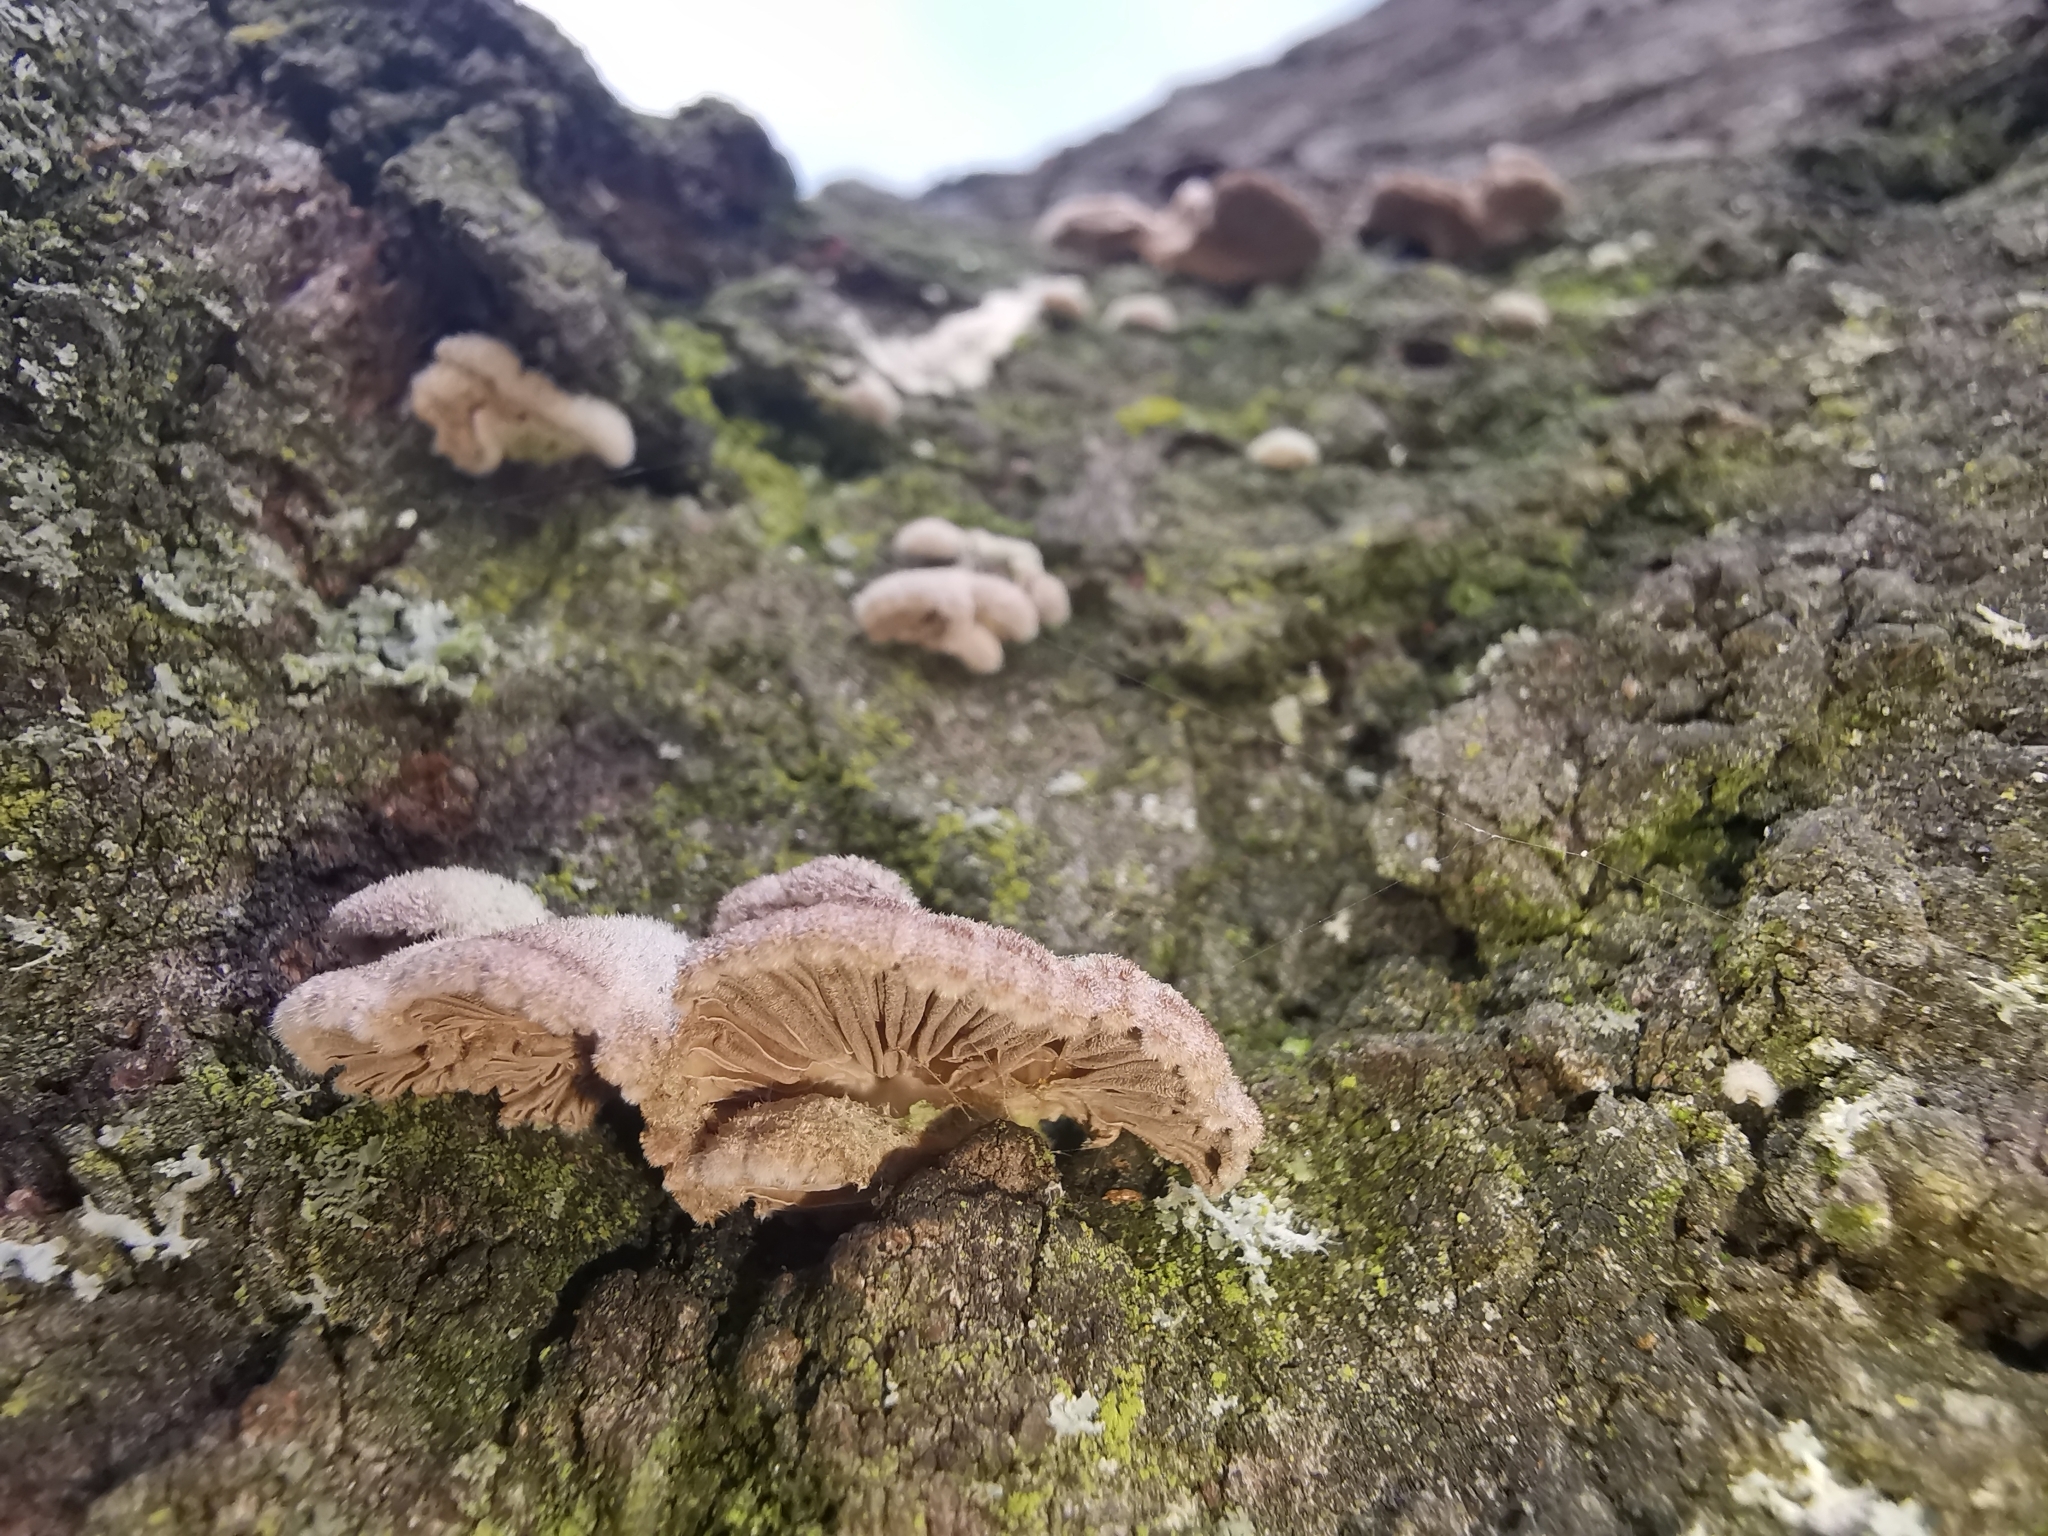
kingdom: Fungi
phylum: Basidiomycota
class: Agaricomycetes
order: Agaricales
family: Schizophyllaceae
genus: Schizophyllum
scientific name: Schizophyllum commune
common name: Common porecrust
